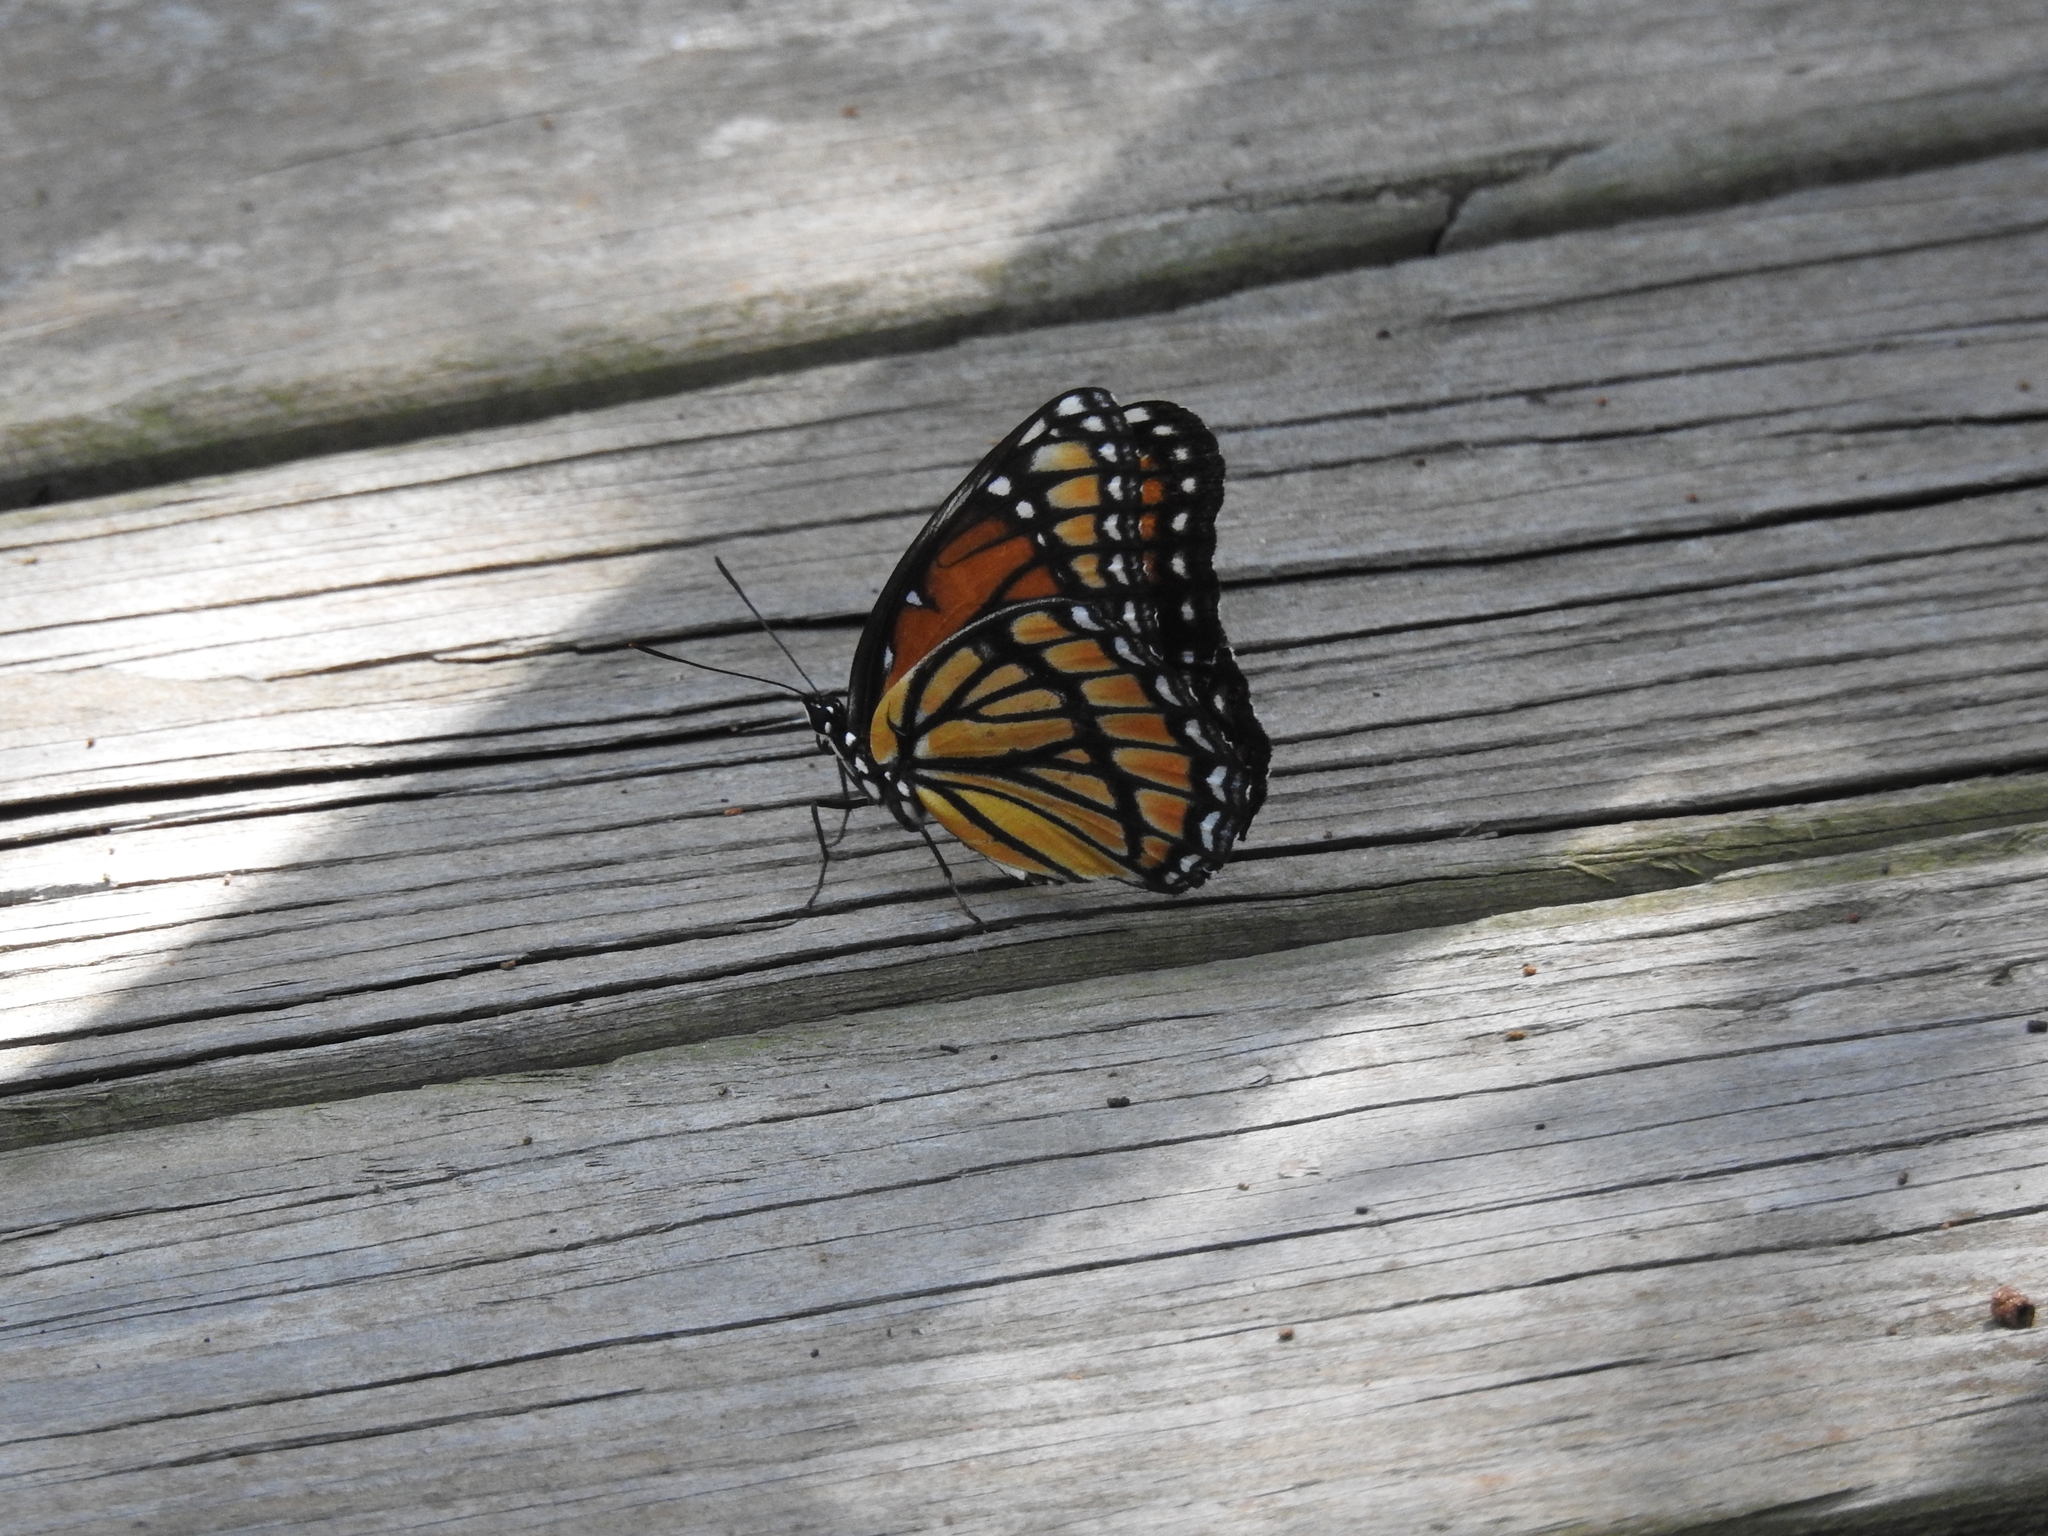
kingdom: Animalia
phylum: Arthropoda
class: Insecta
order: Lepidoptera
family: Nymphalidae
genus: Limenitis
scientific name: Limenitis archippus
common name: Viceroy
